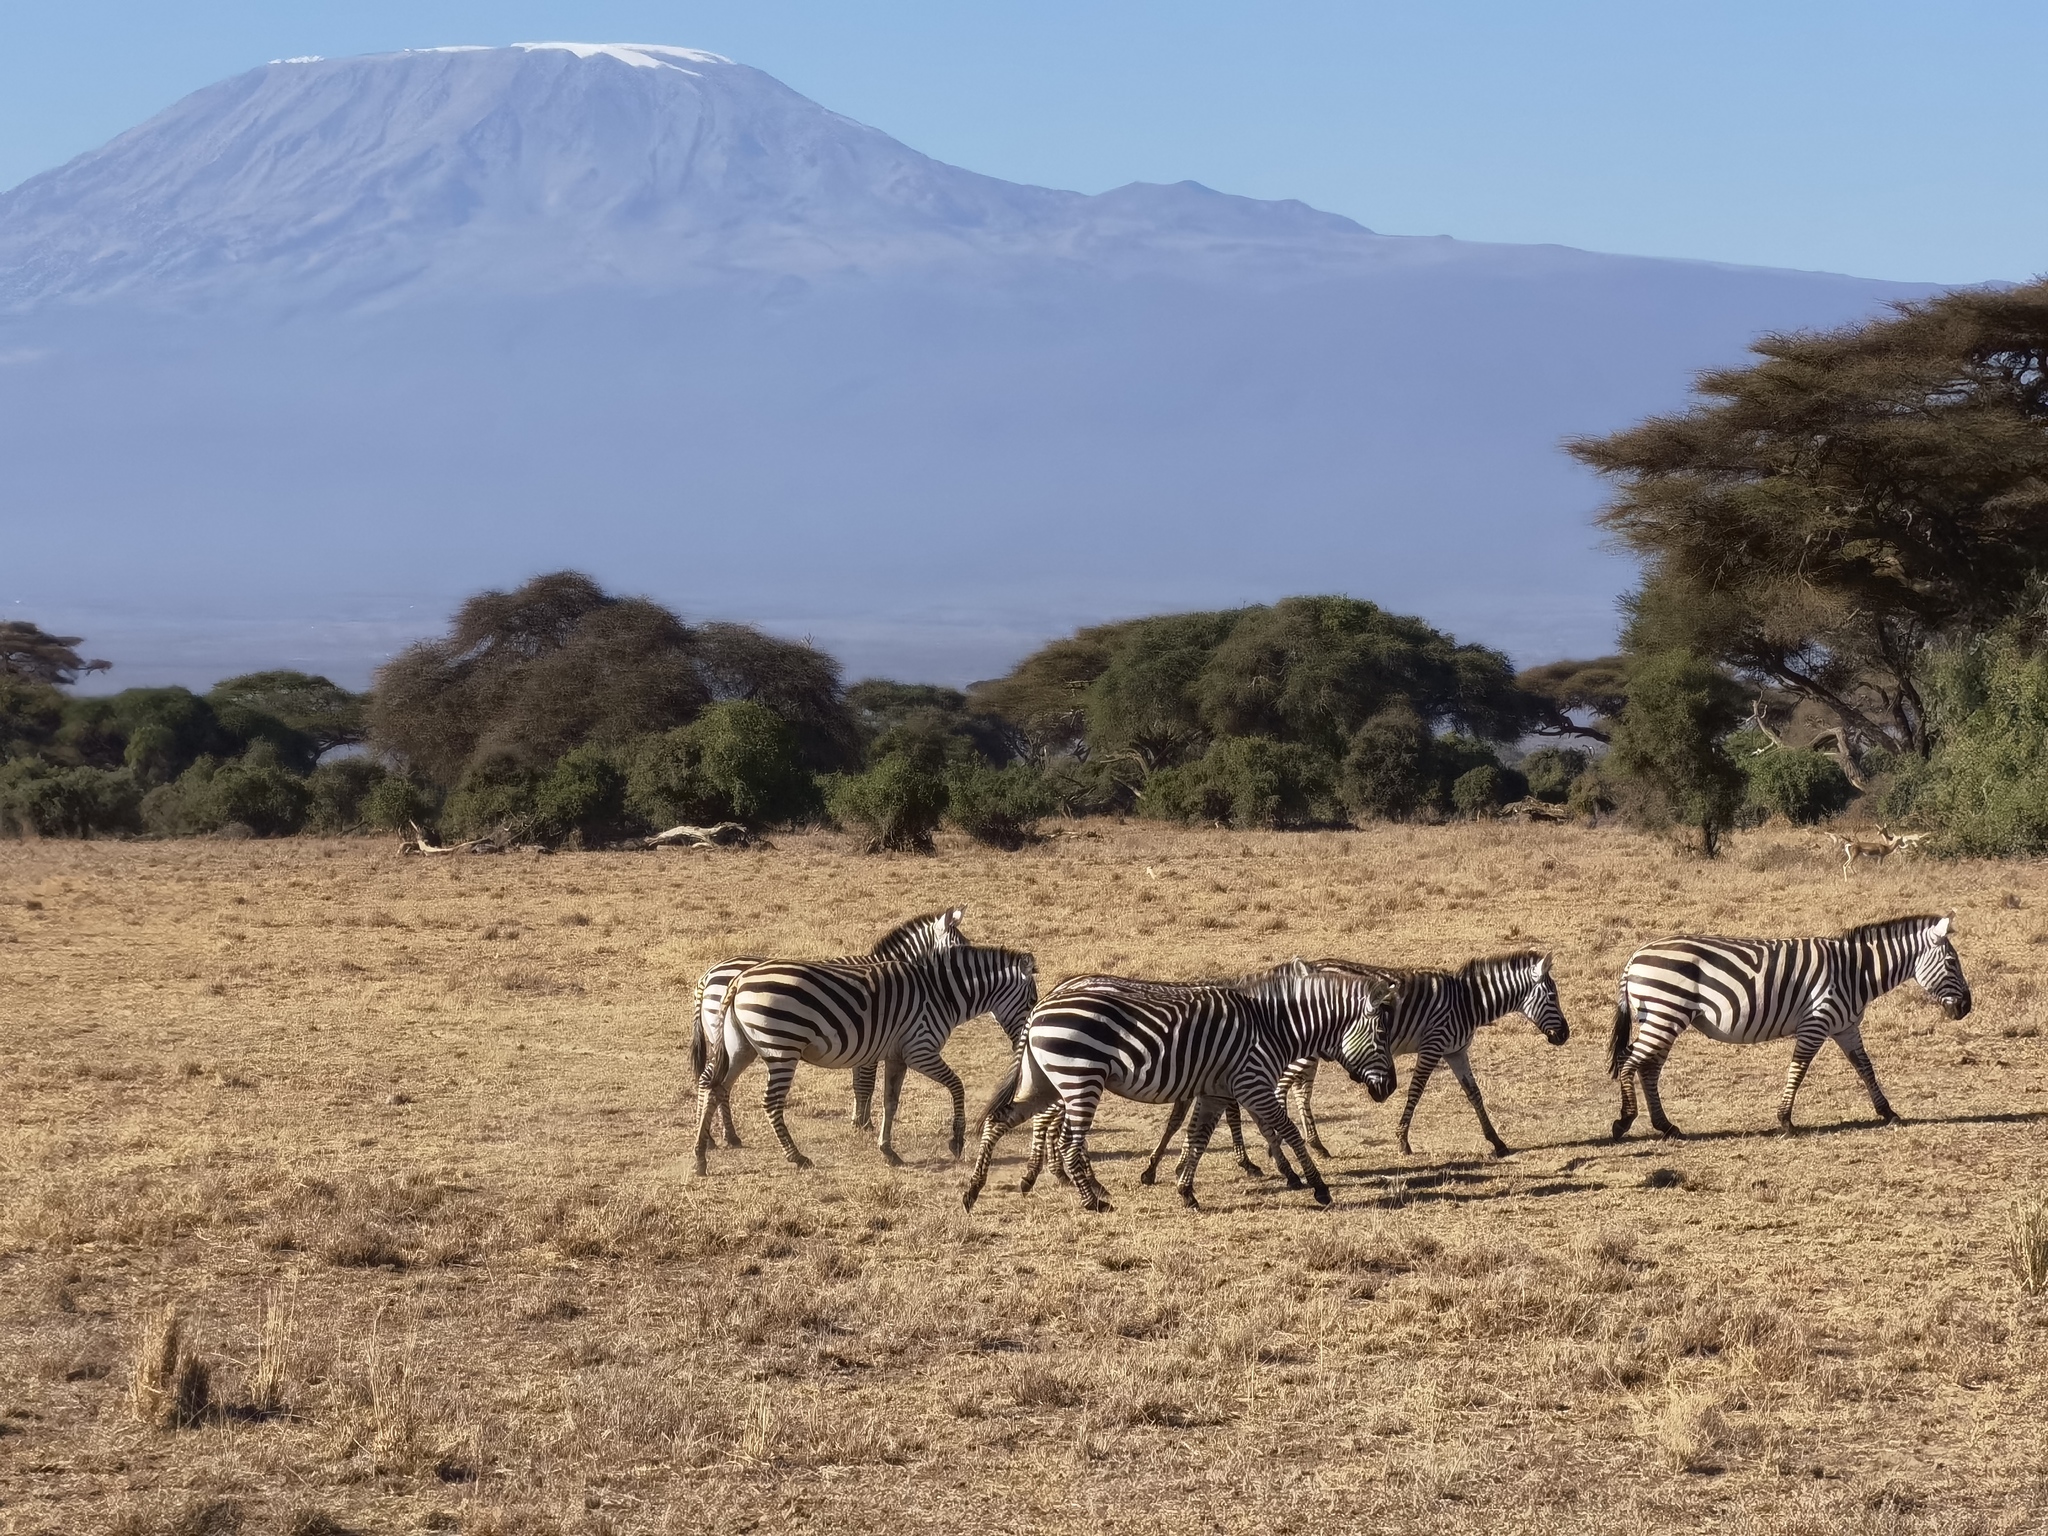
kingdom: Animalia
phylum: Chordata
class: Mammalia
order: Perissodactyla
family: Equidae
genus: Equus
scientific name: Equus quagga
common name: Plains zebra
